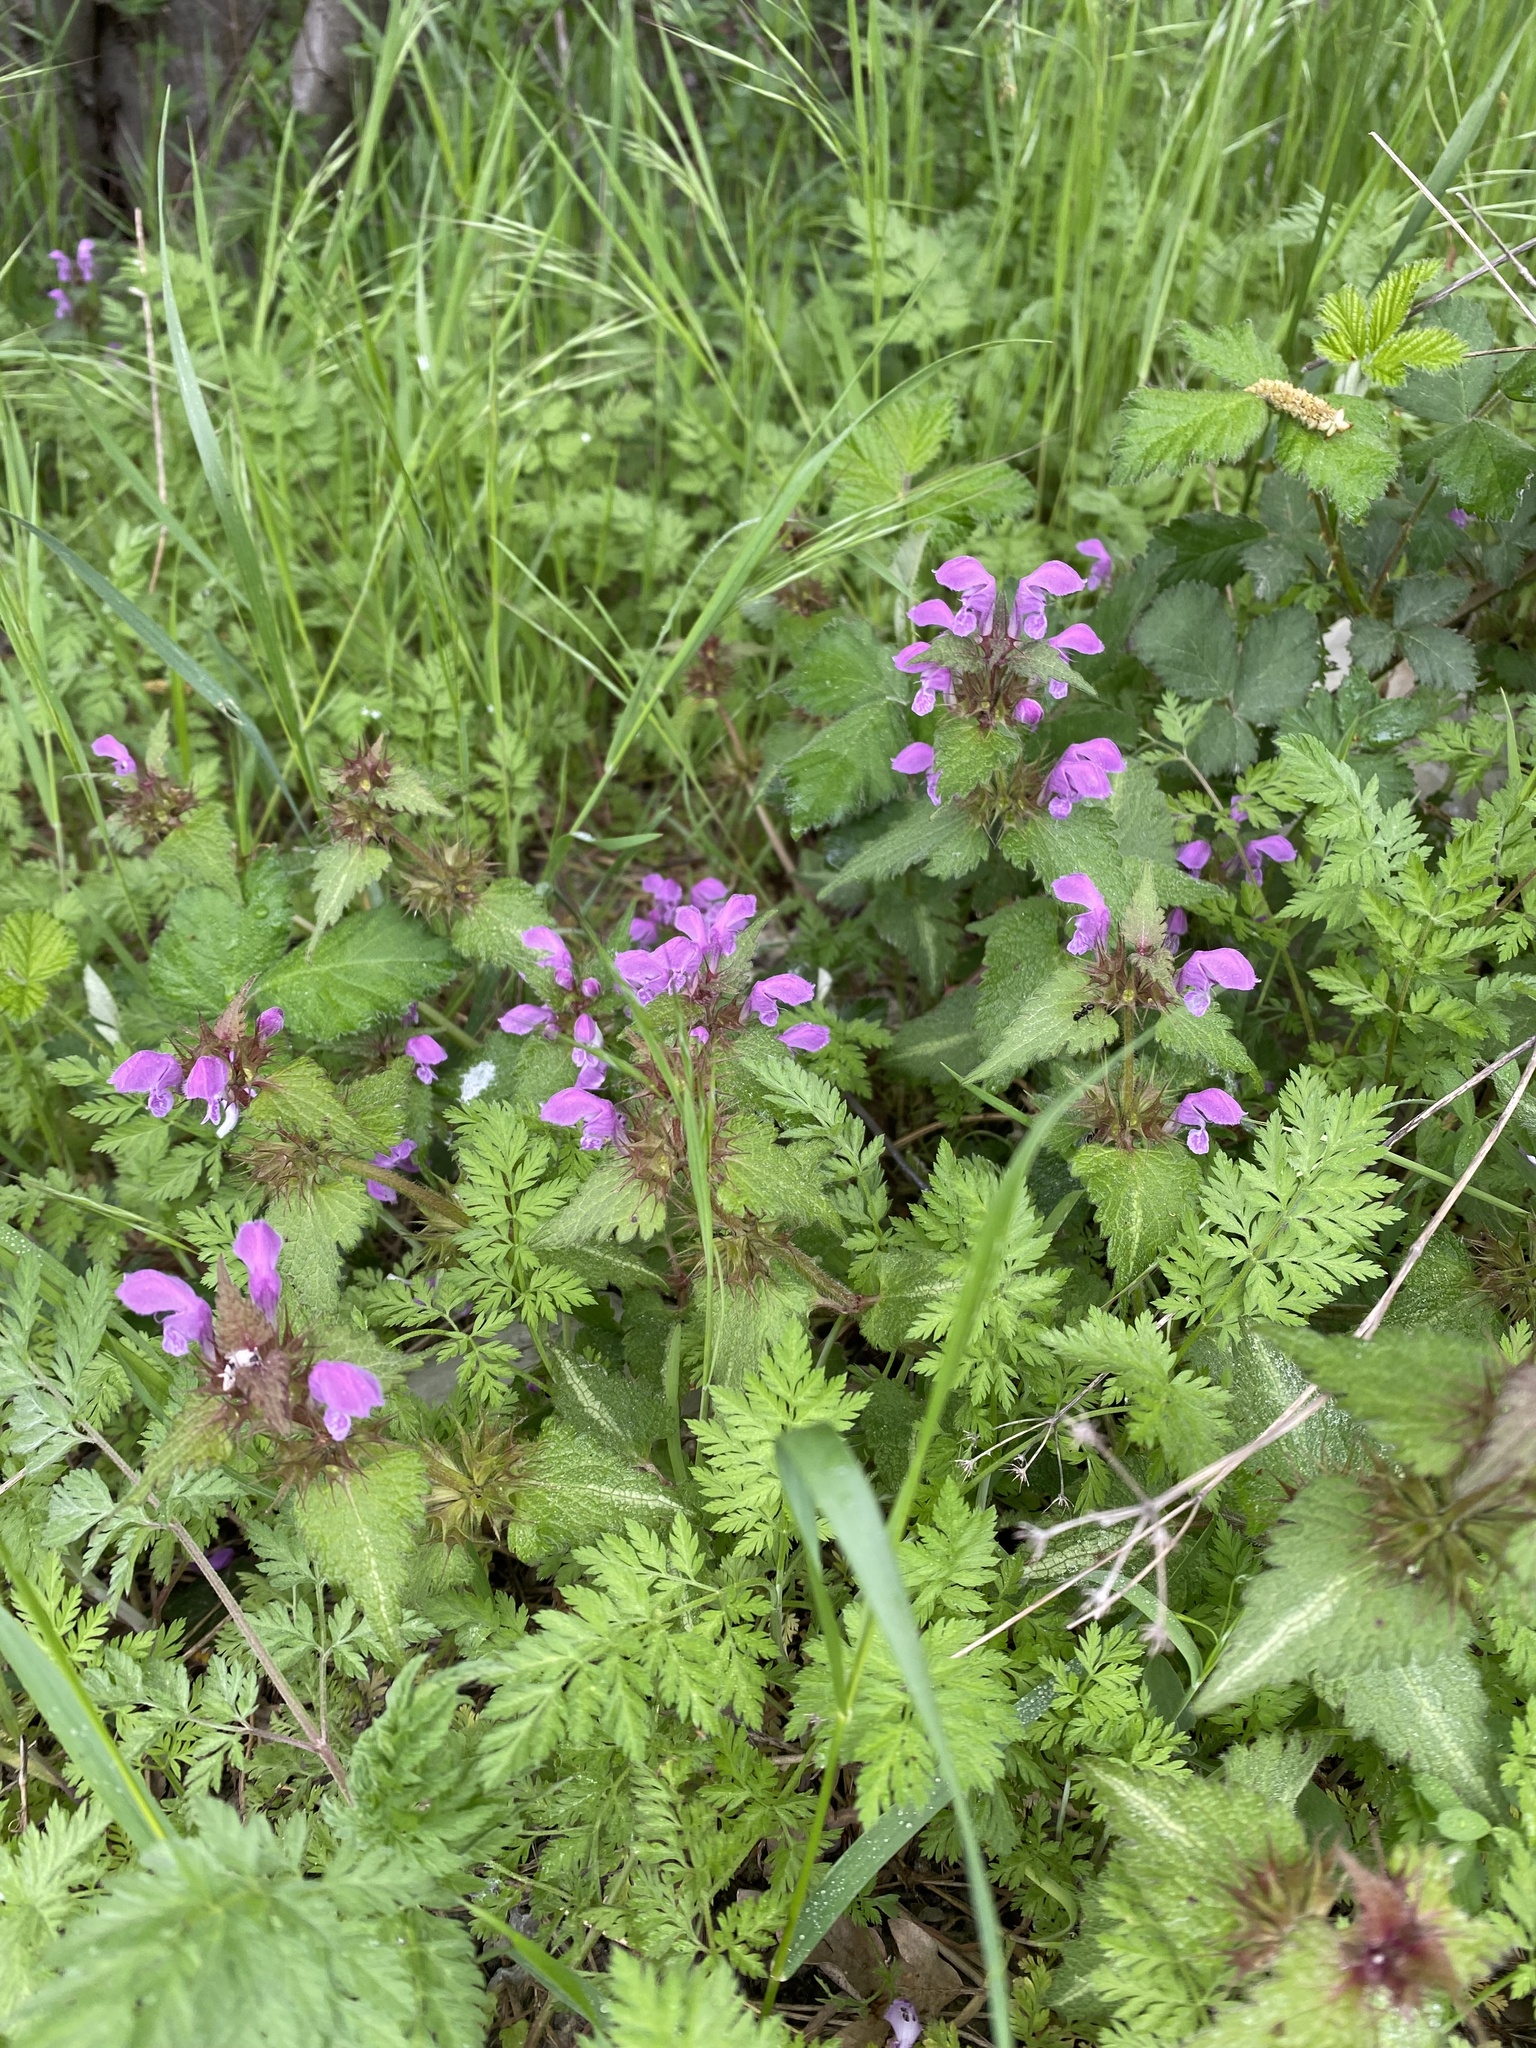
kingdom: Plantae
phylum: Tracheophyta
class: Magnoliopsida
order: Lamiales
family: Lamiaceae
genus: Lamium
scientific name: Lamium maculatum
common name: Spotted dead-nettle
